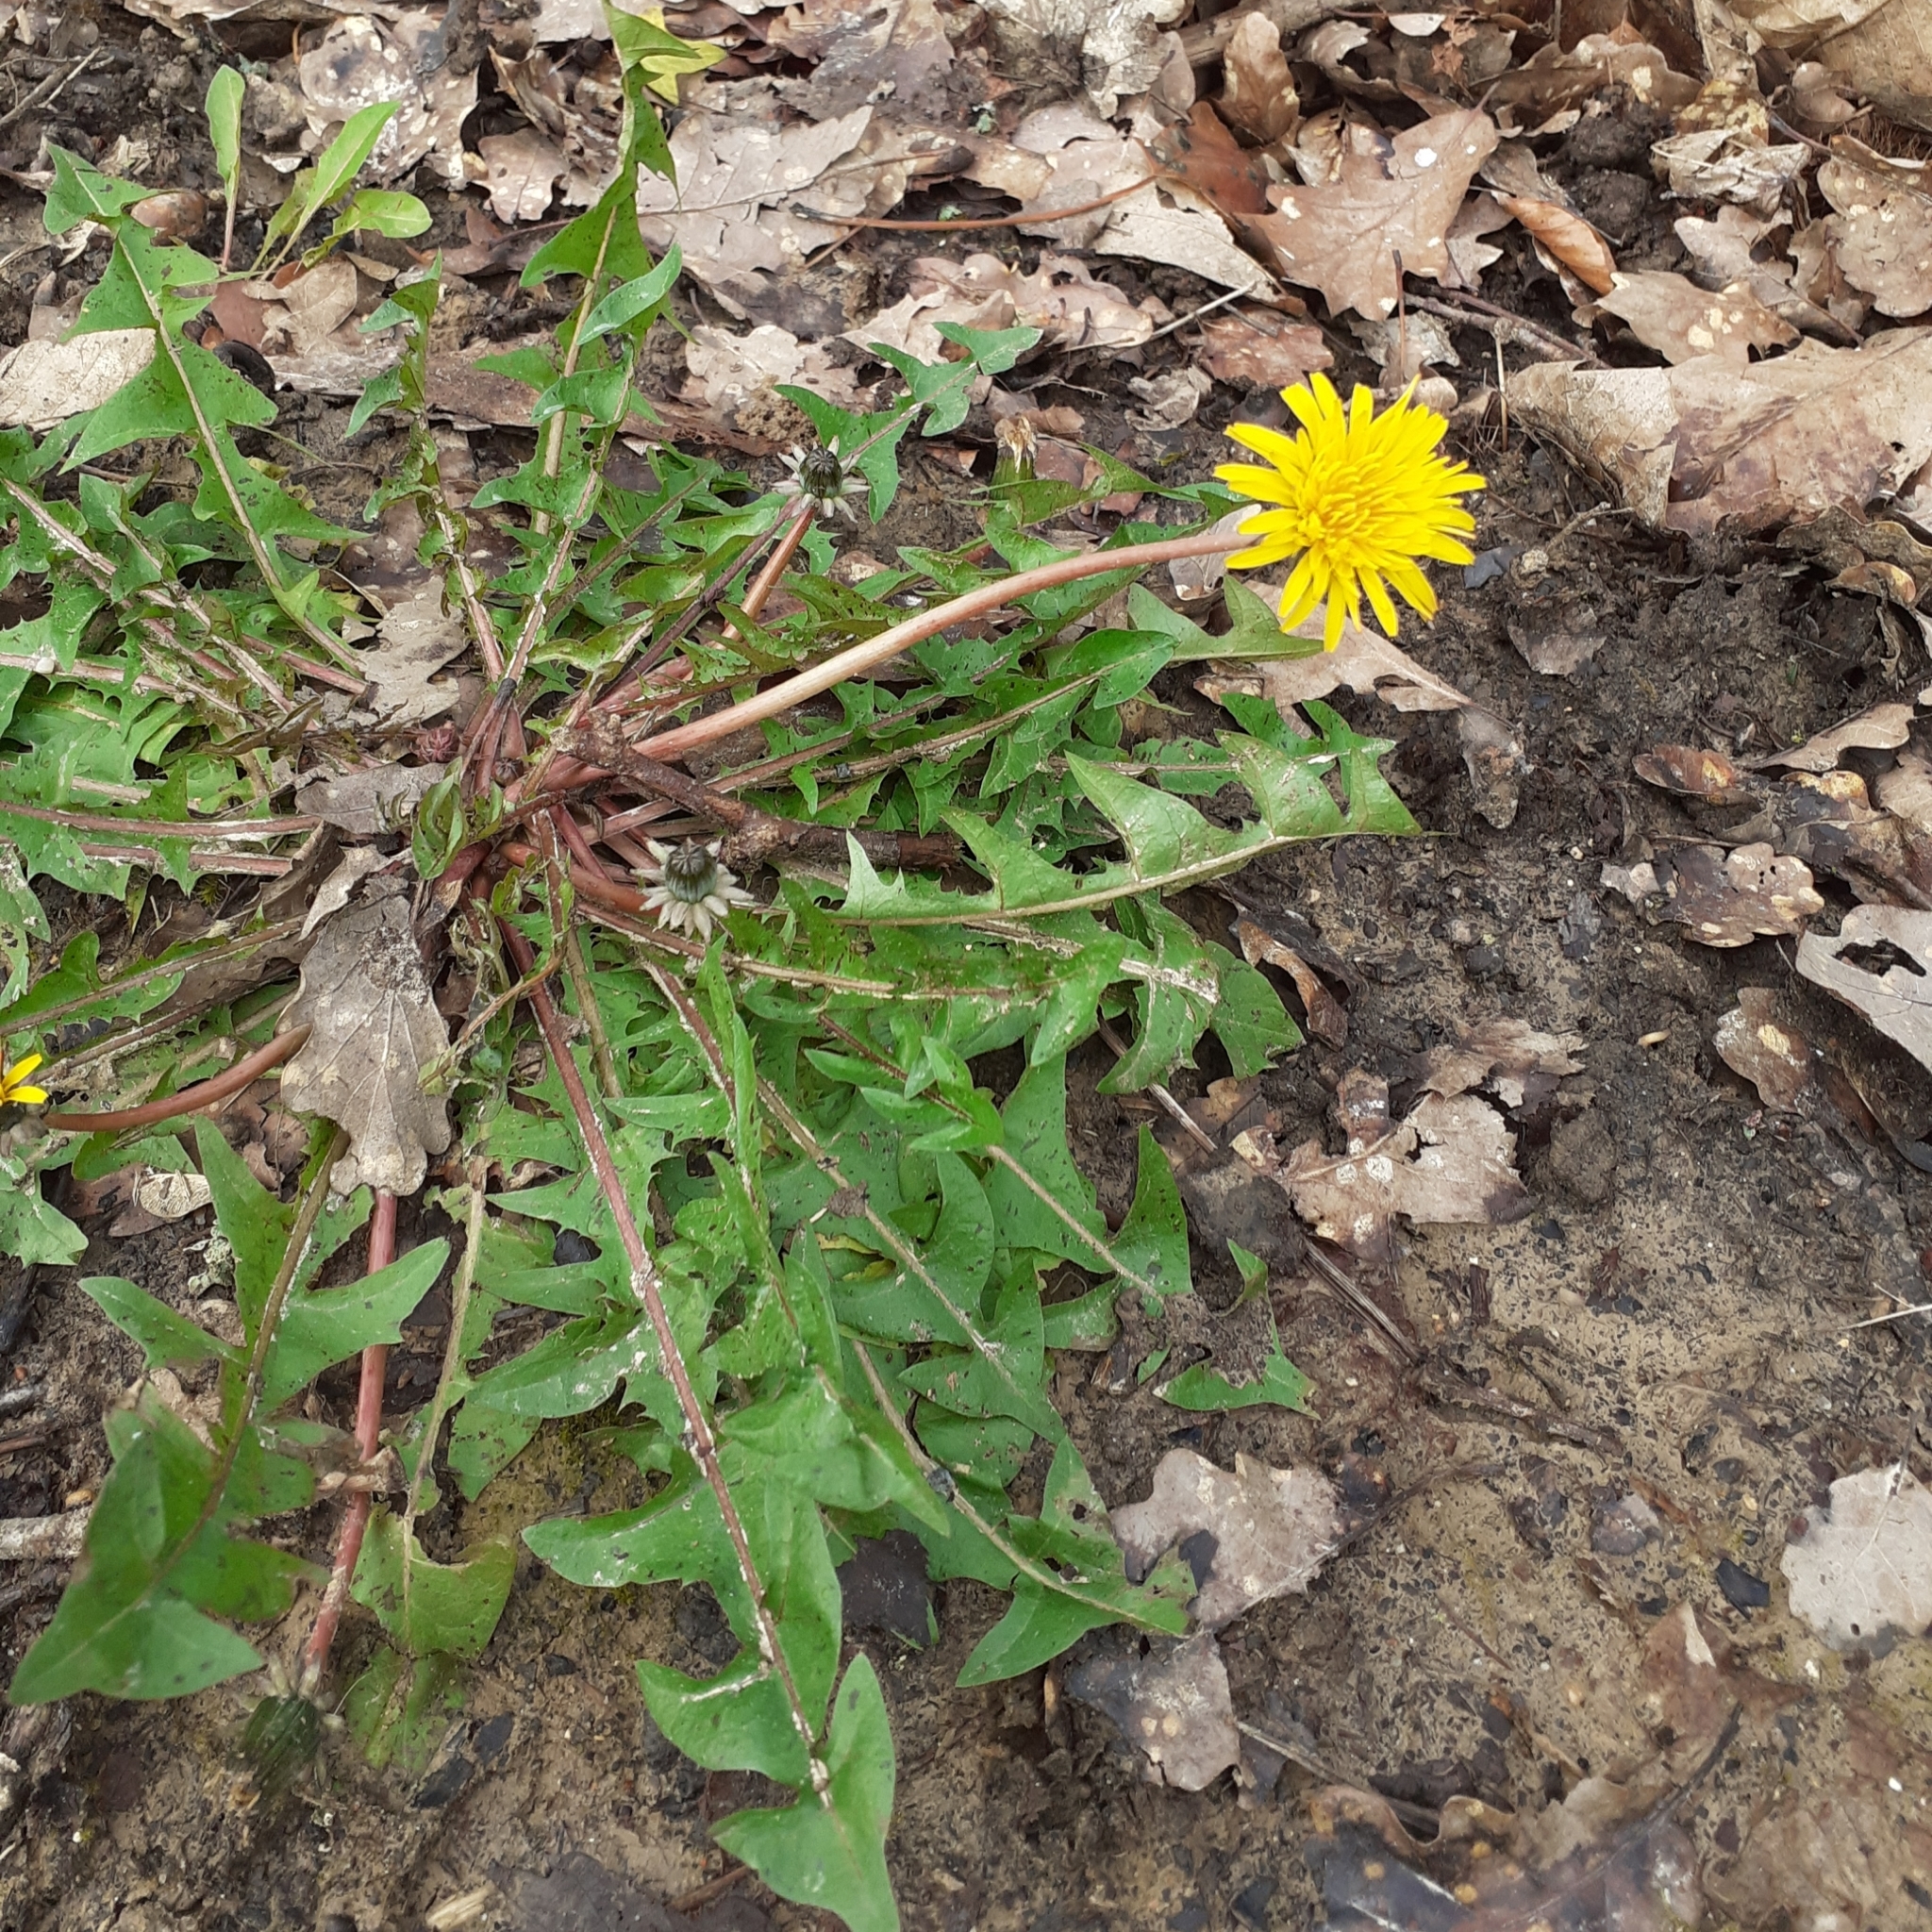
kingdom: Plantae
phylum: Tracheophyta
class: Magnoliopsida
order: Asterales
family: Asteraceae
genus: Taraxacum
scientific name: Taraxacum officinale
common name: Common dandelion
